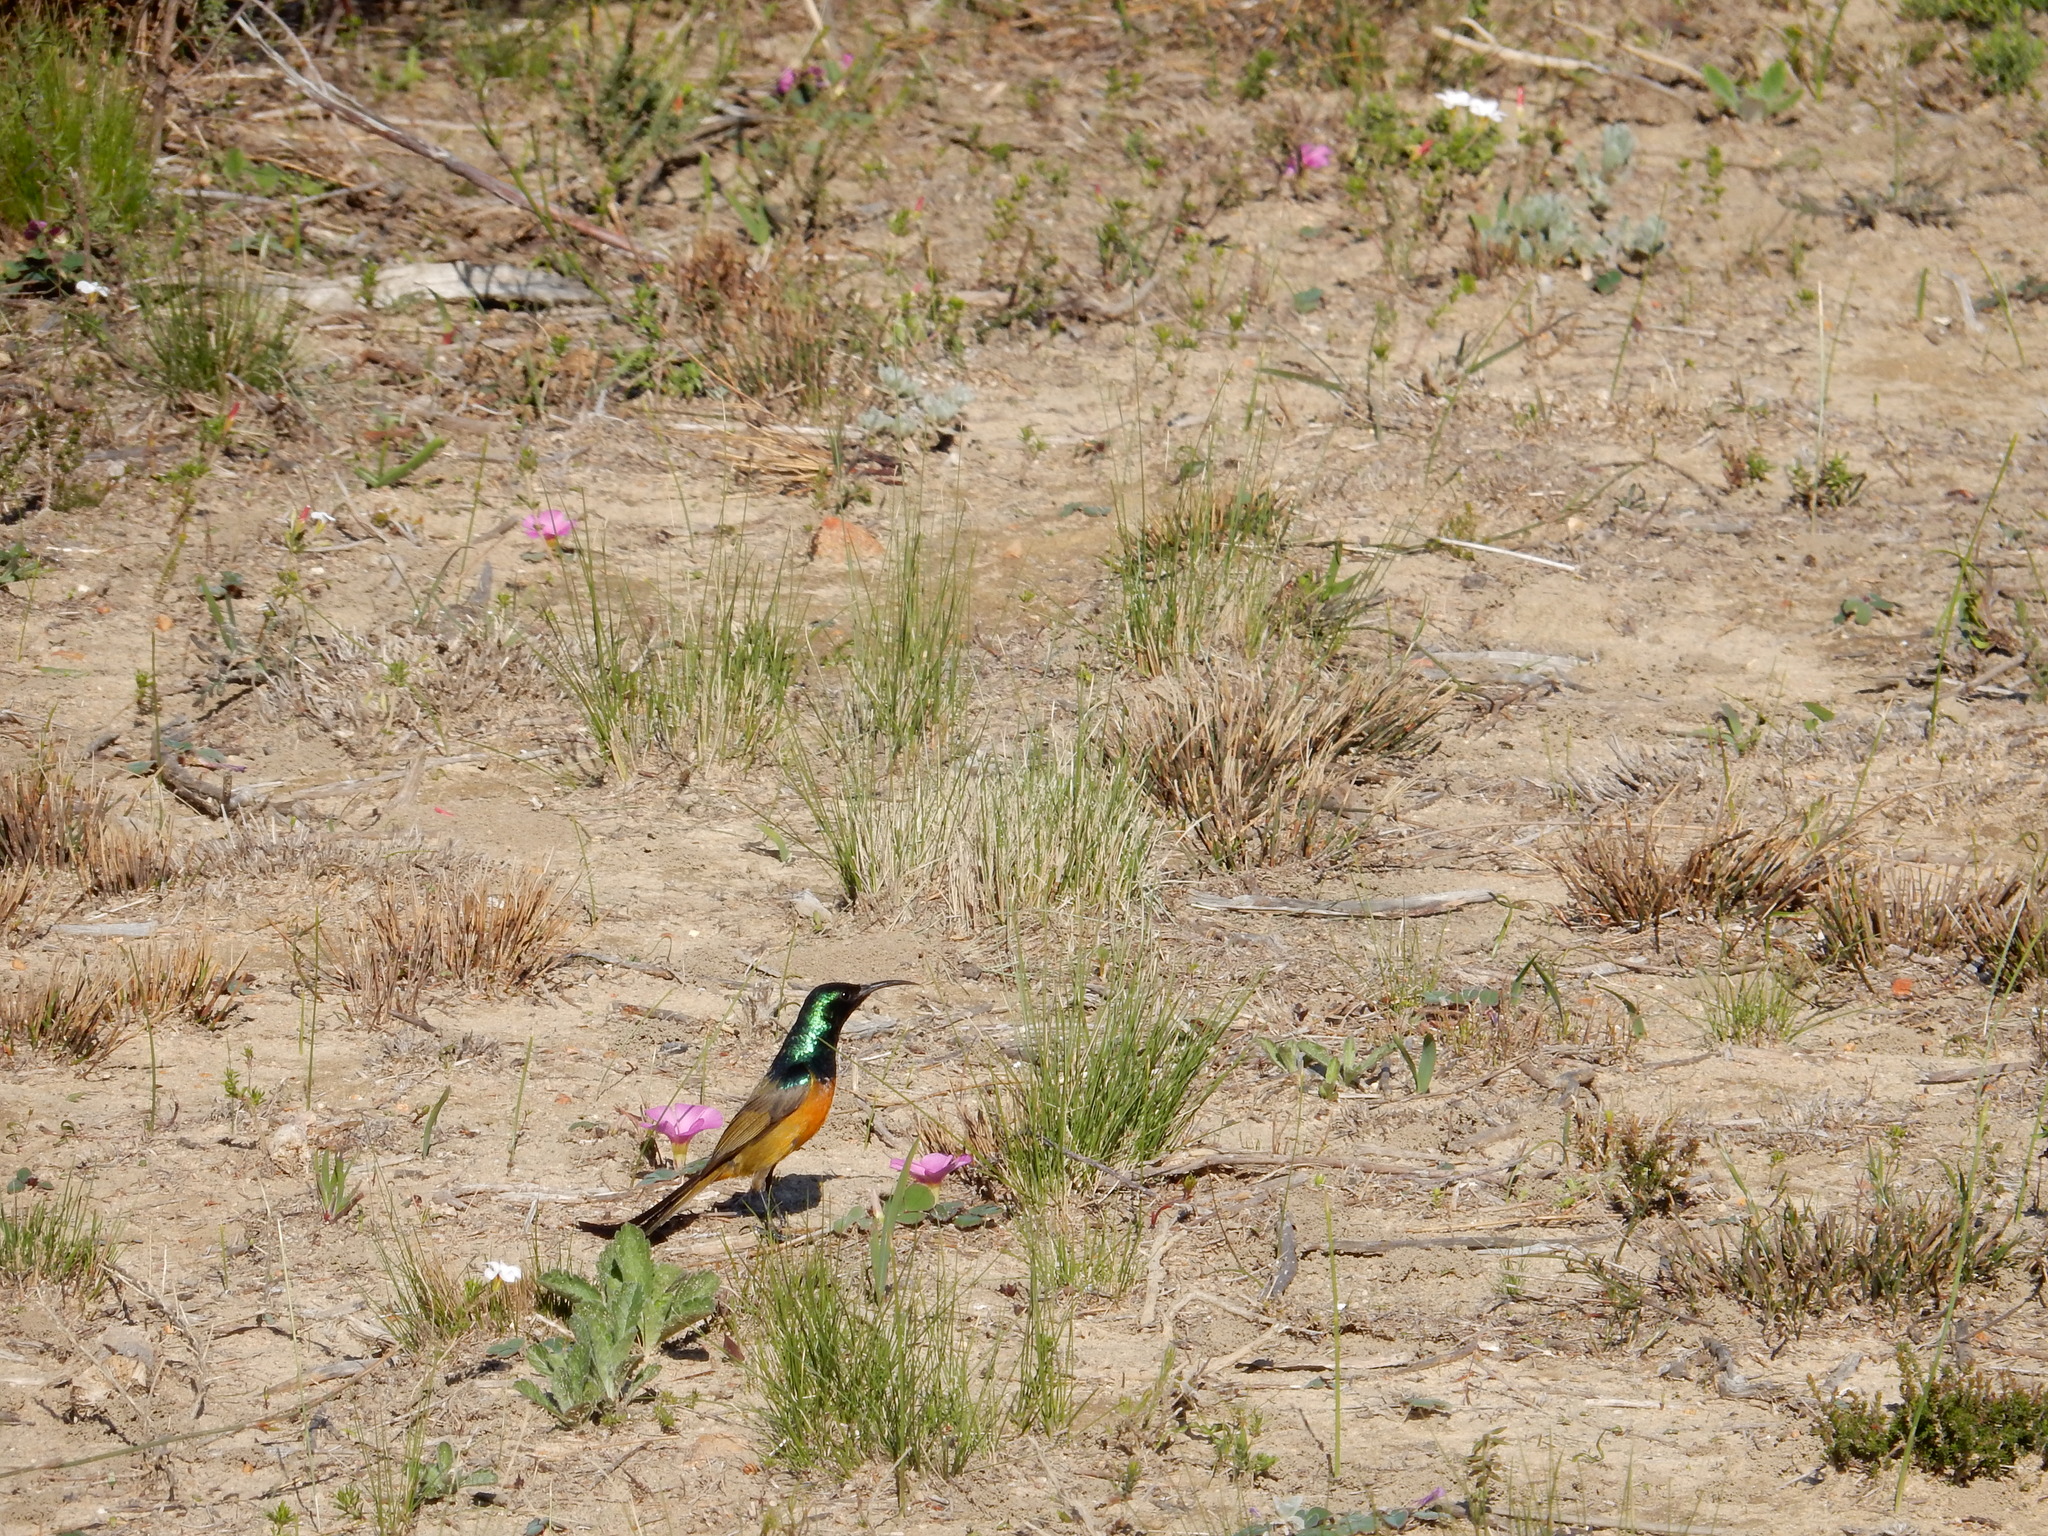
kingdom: Animalia
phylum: Chordata
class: Aves
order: Passeriformes
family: Nectariniidae
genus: Anthobaphes
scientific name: Anthobaphes violacea
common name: Orange-breasted sunbird
